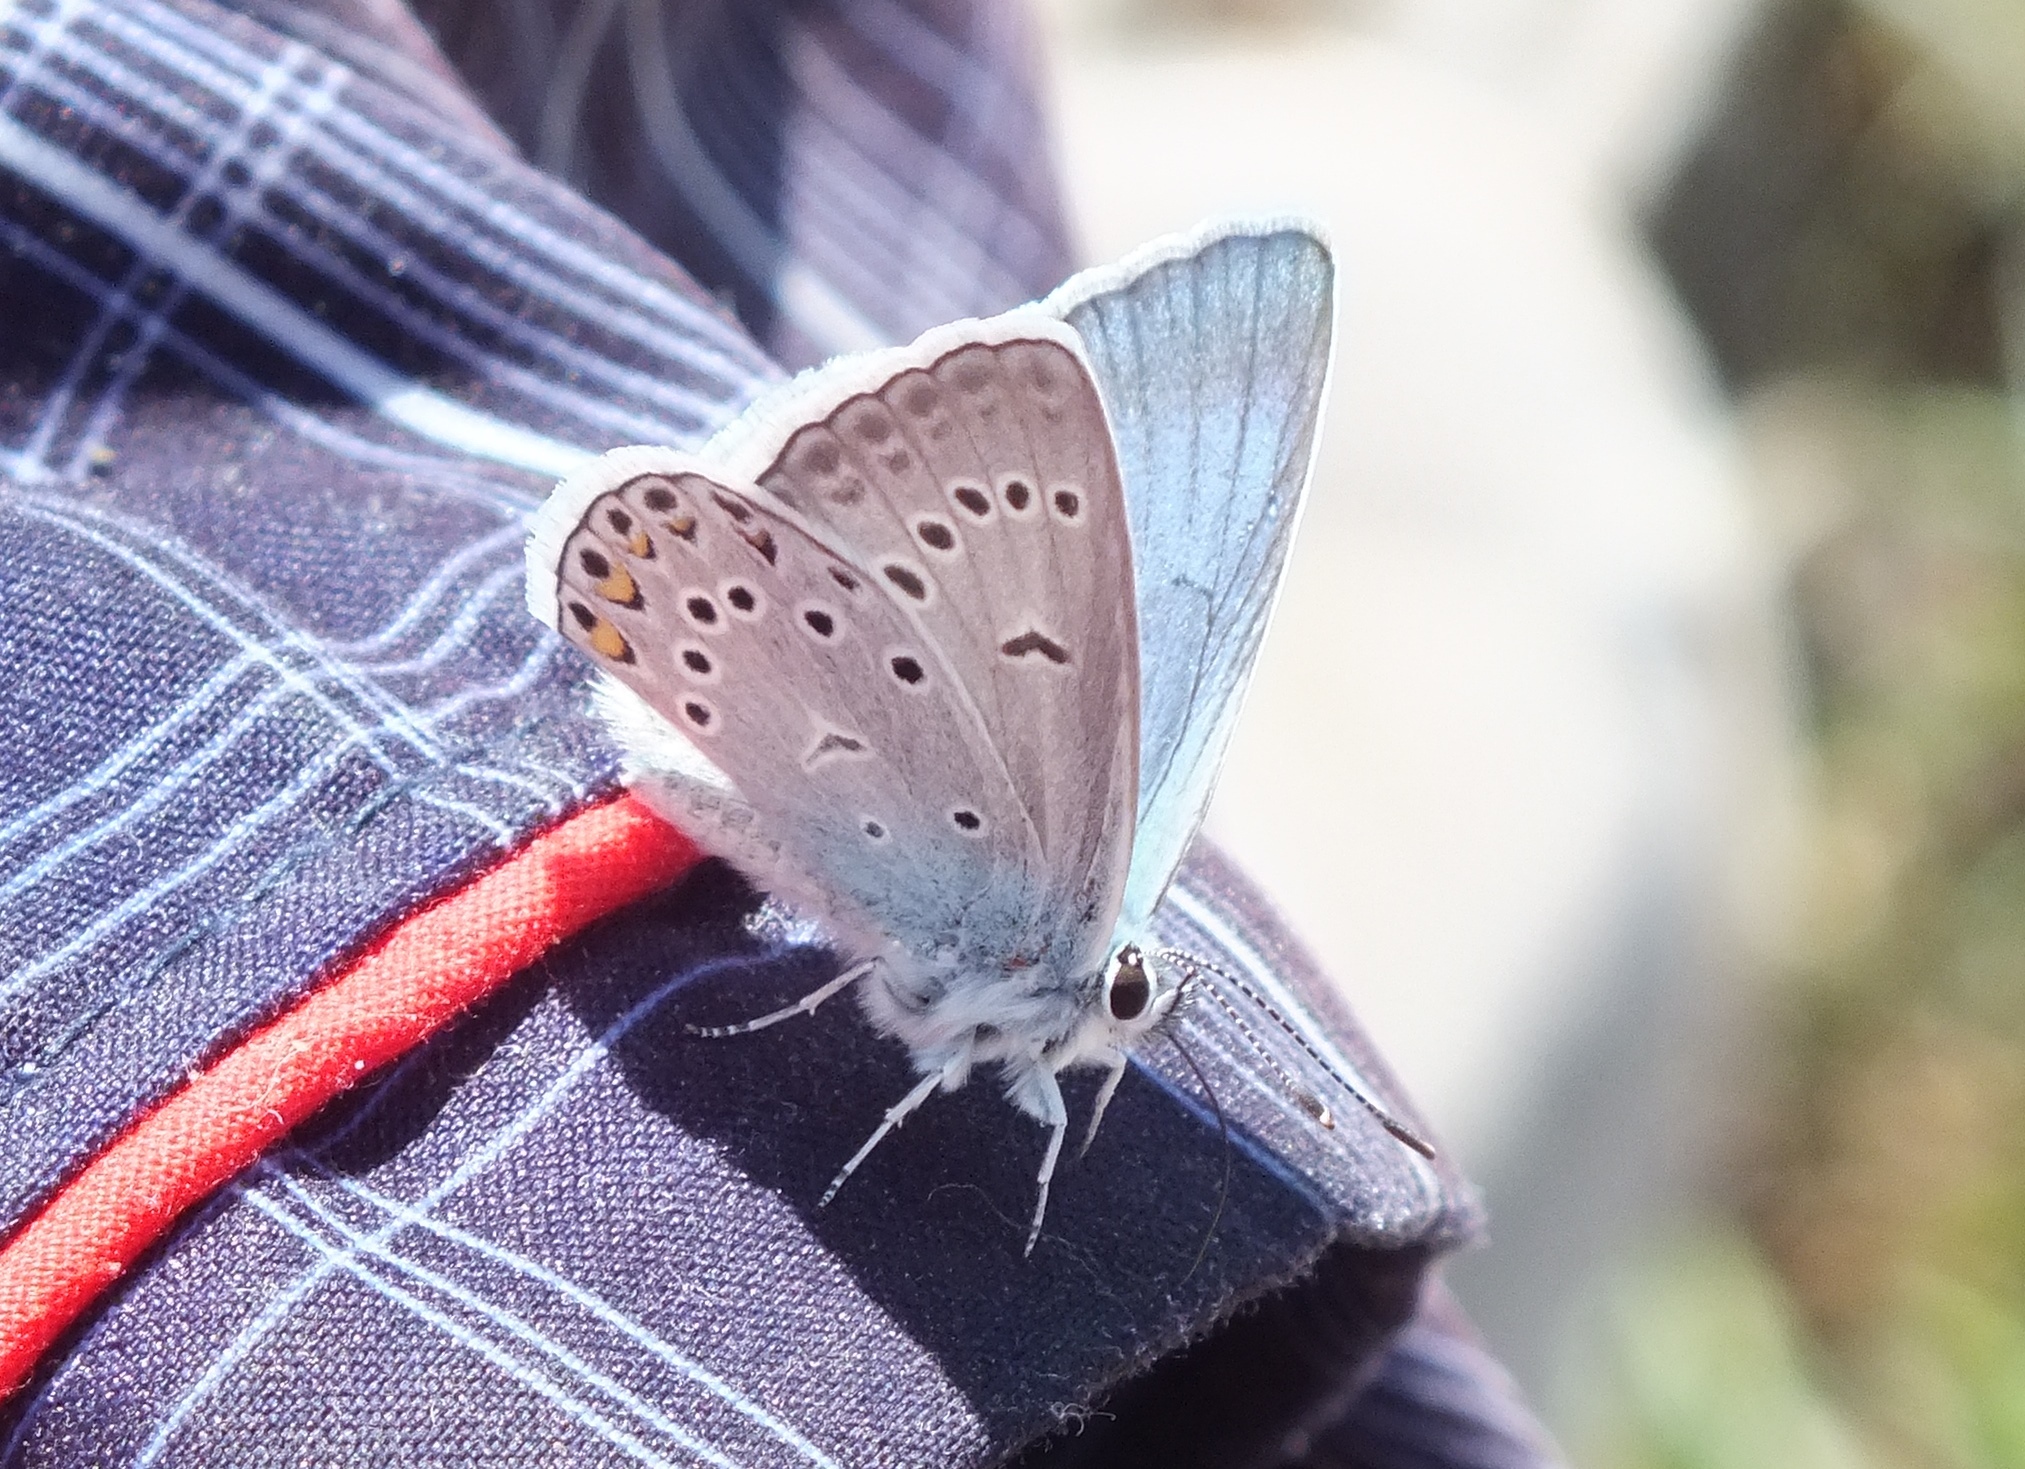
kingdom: Animalia
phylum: Arthropoda
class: Insecta
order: Lepidoptera
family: Lycaenidae
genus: Plebejus
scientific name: Plebejus amanda
